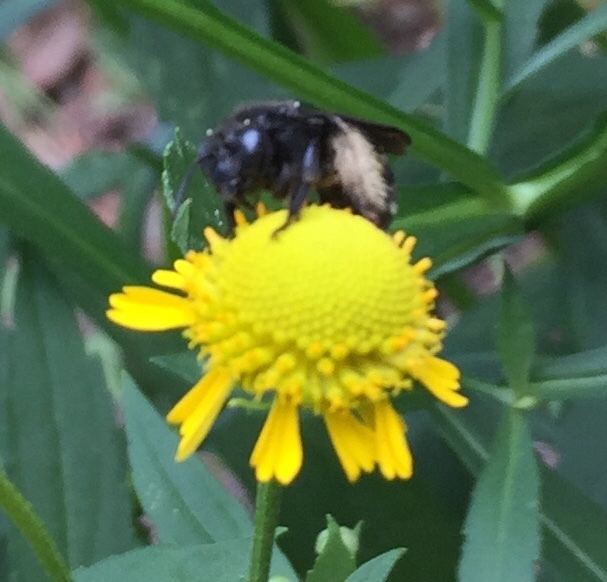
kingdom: Animalia
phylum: Arthropoda
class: Insecta
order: Hymenoptera
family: Apidae
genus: Melissodes
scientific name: Melissodes bimaculatus
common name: Two-spotted long-horned bee
